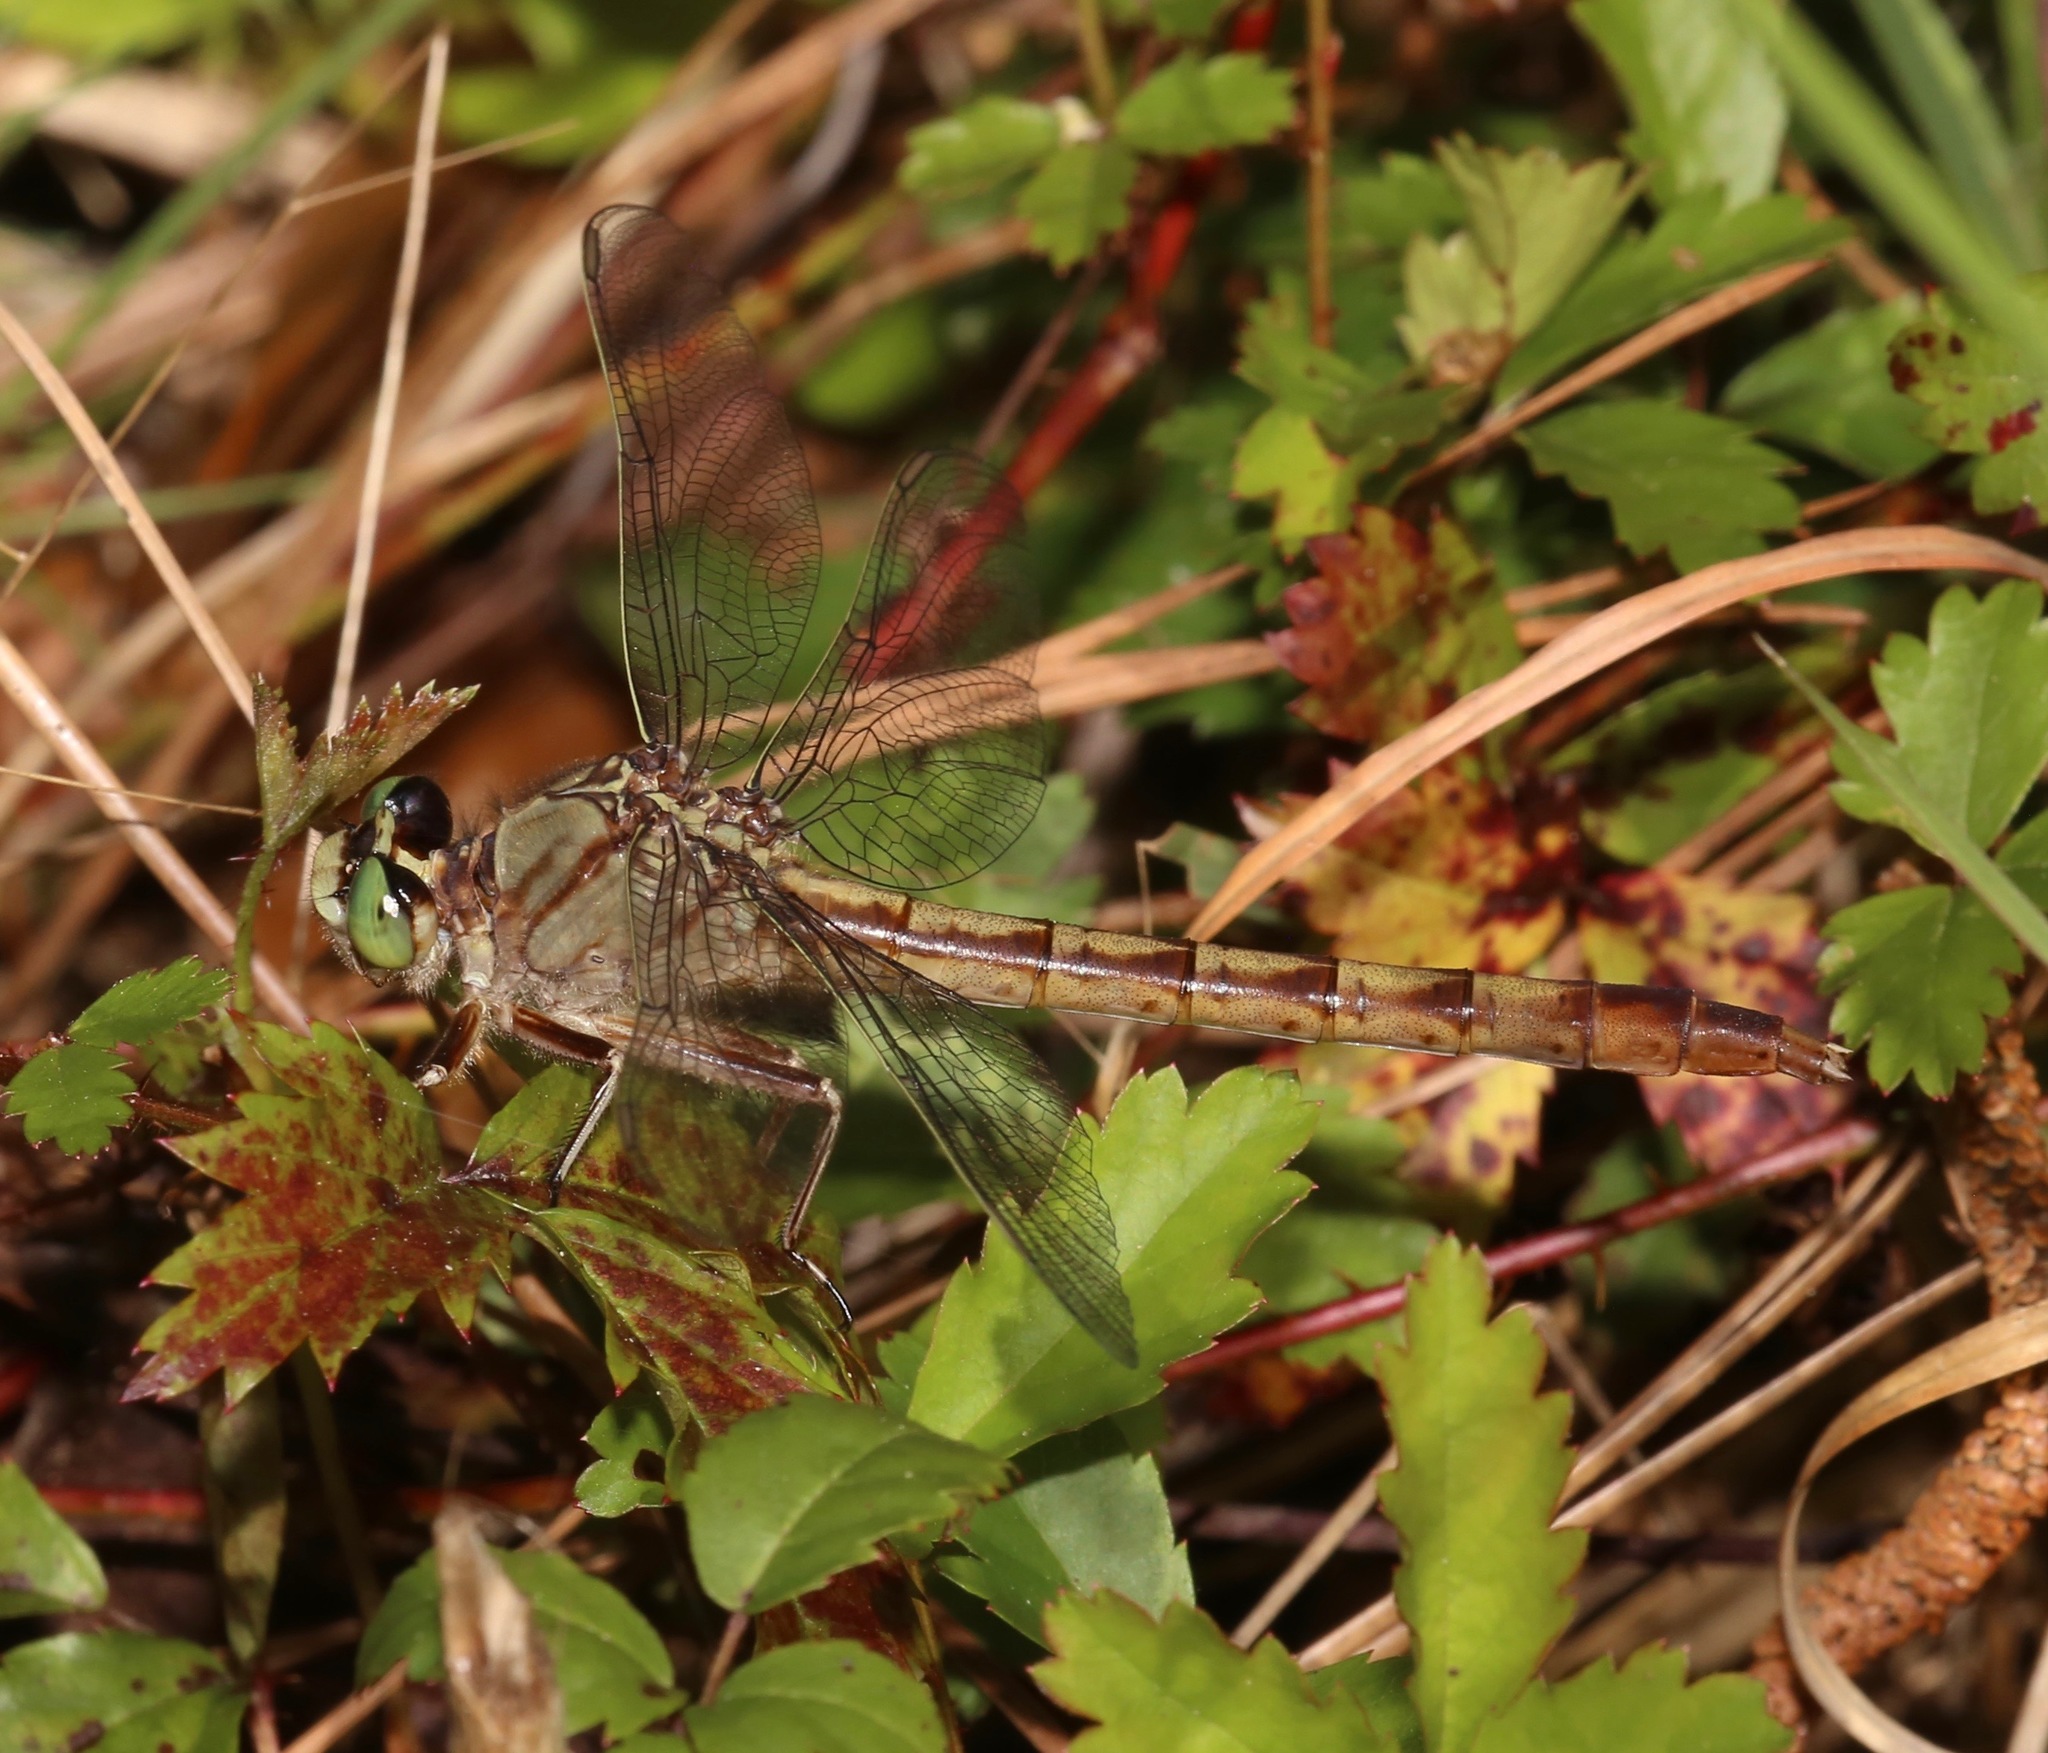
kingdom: Animalia
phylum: Arthropoda
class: Insecta
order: Odonata
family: Gomphidae
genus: Arigomphus
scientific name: Arigomphus pallidus
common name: Gray-green clubtail
